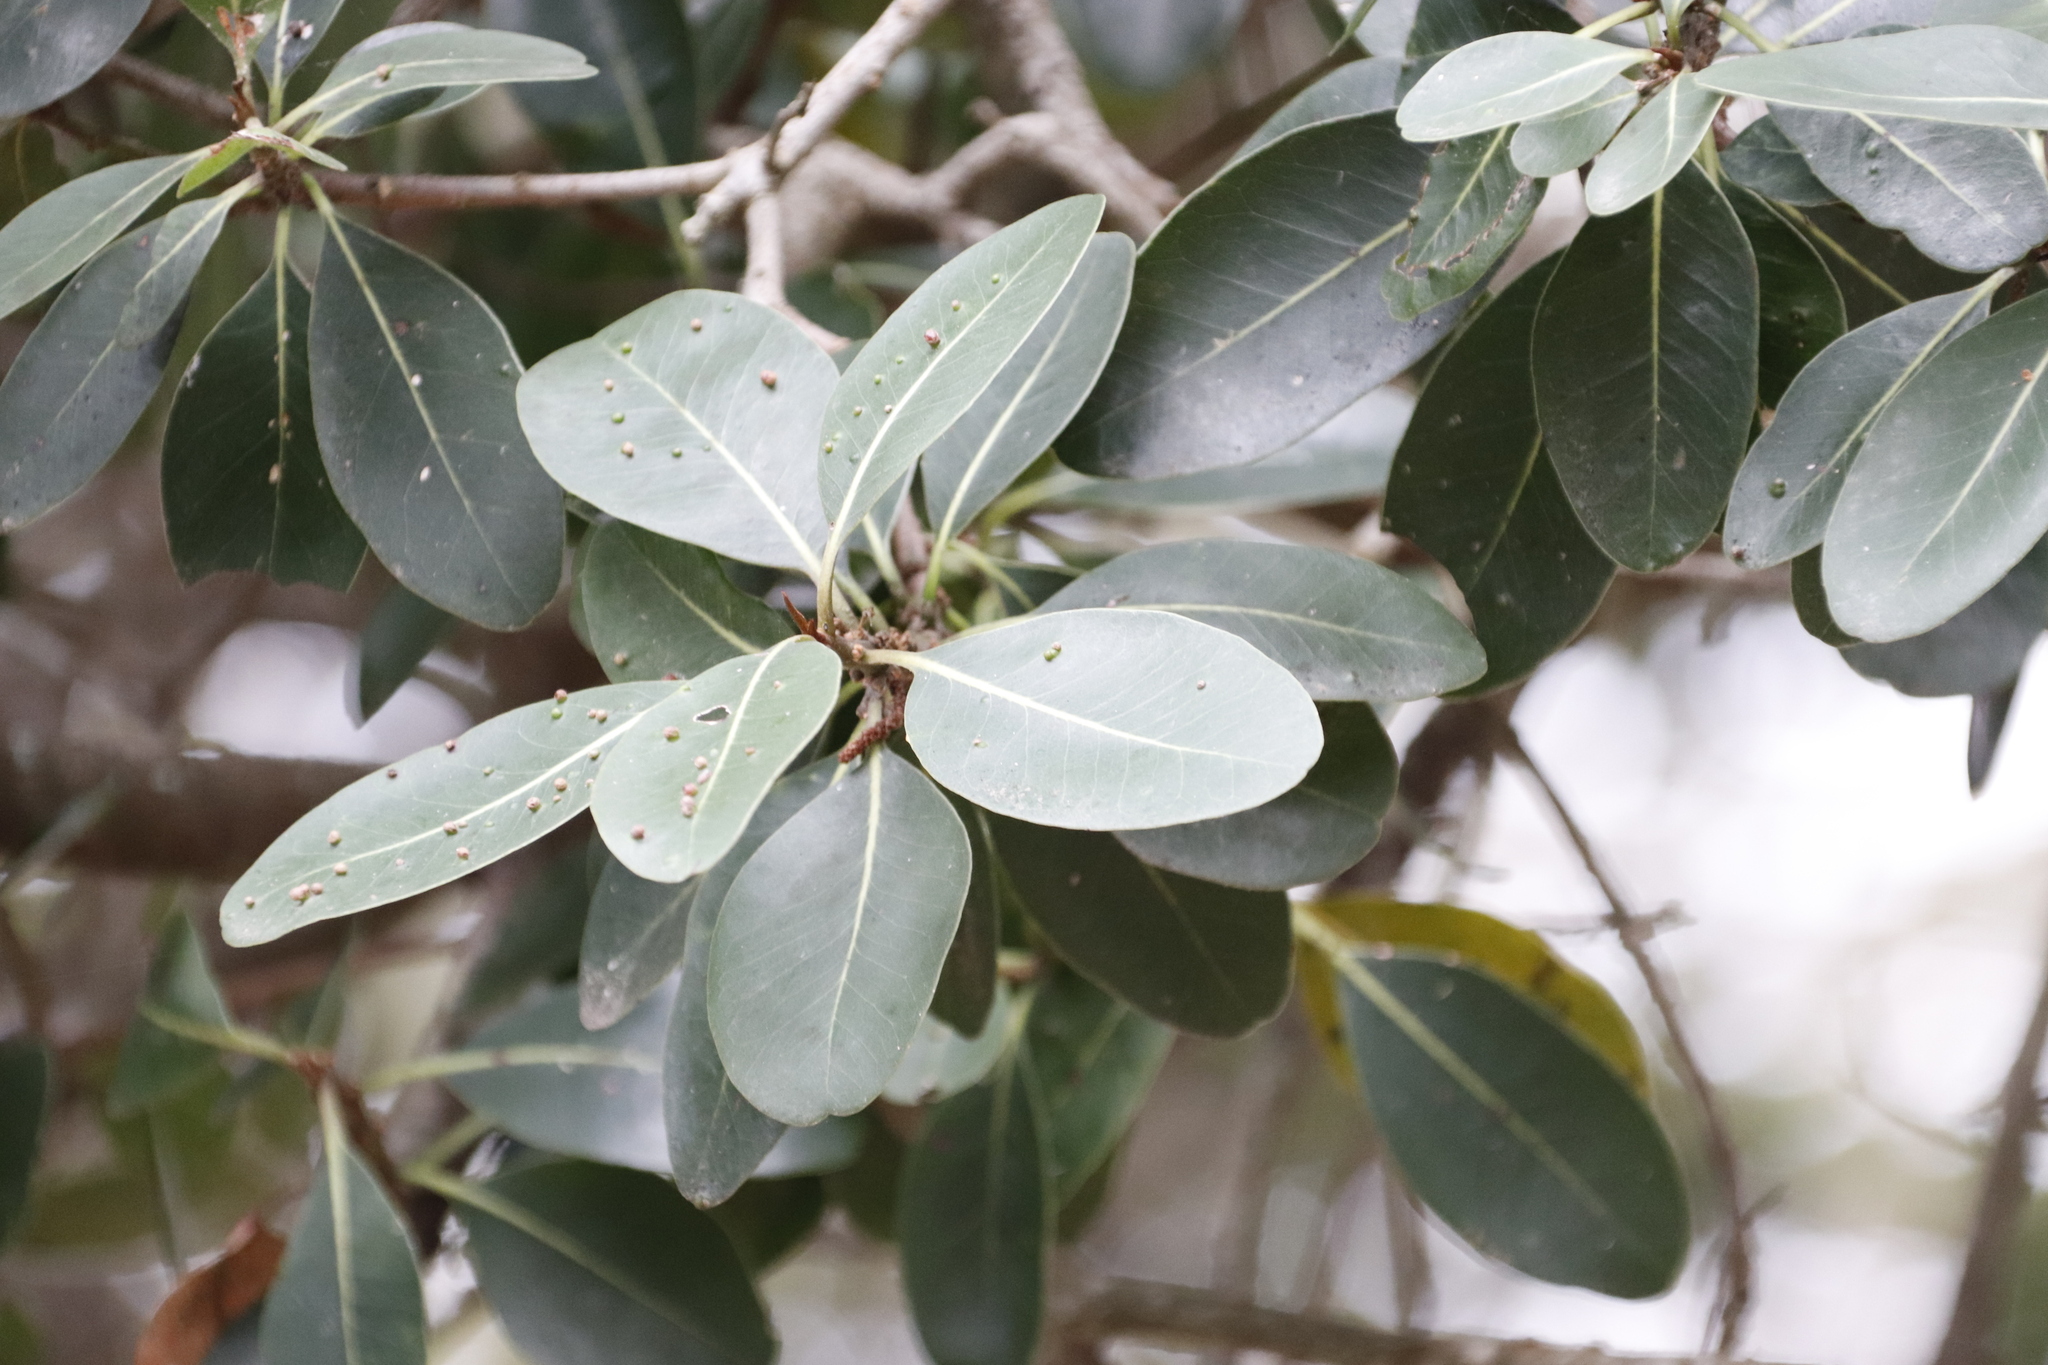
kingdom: Plantae
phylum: Tracheophyta
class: Magnoliopsida
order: Ericales
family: Sapotaceae
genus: Sideroxylon
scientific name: Sideroxylon inerme
